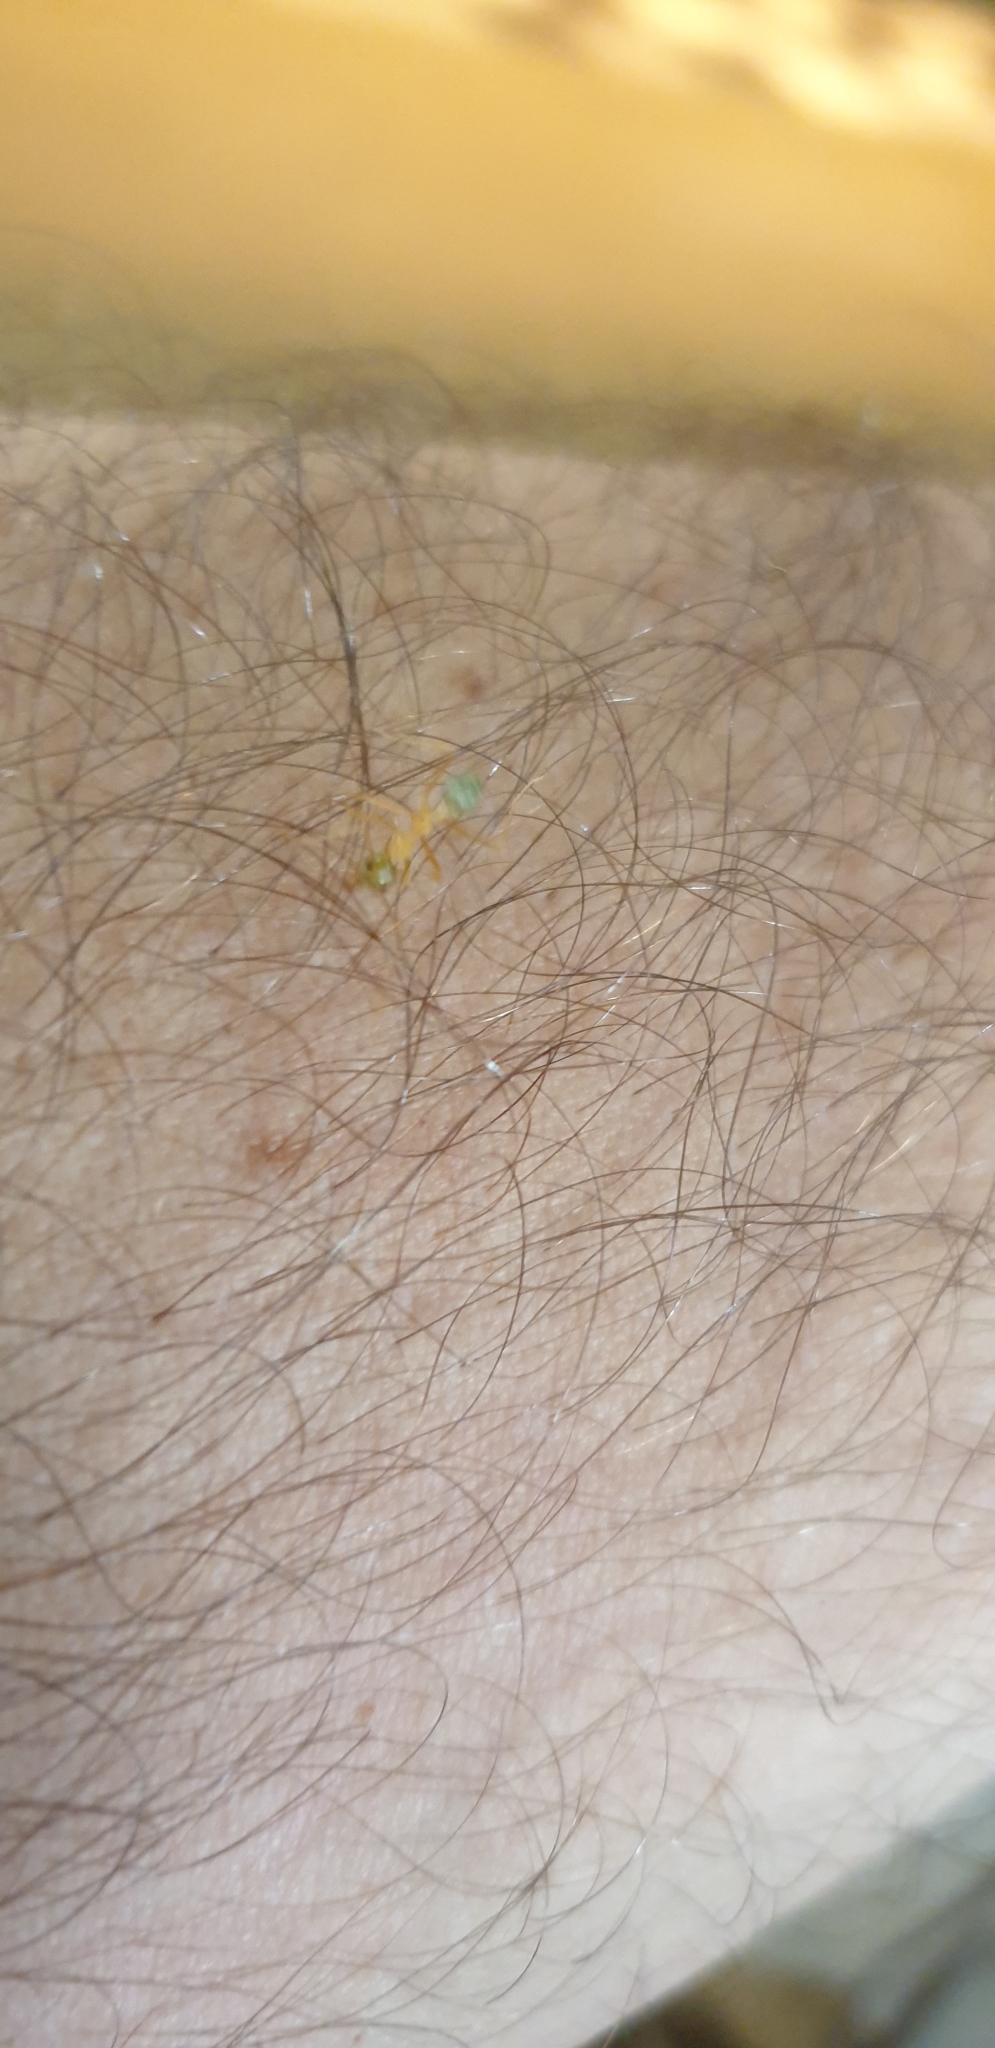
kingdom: Animalia
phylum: Arthropoda
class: Insecta
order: Hymenoptera
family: Formicidae
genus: Oecophylla
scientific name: Oecophylla smaragdina
